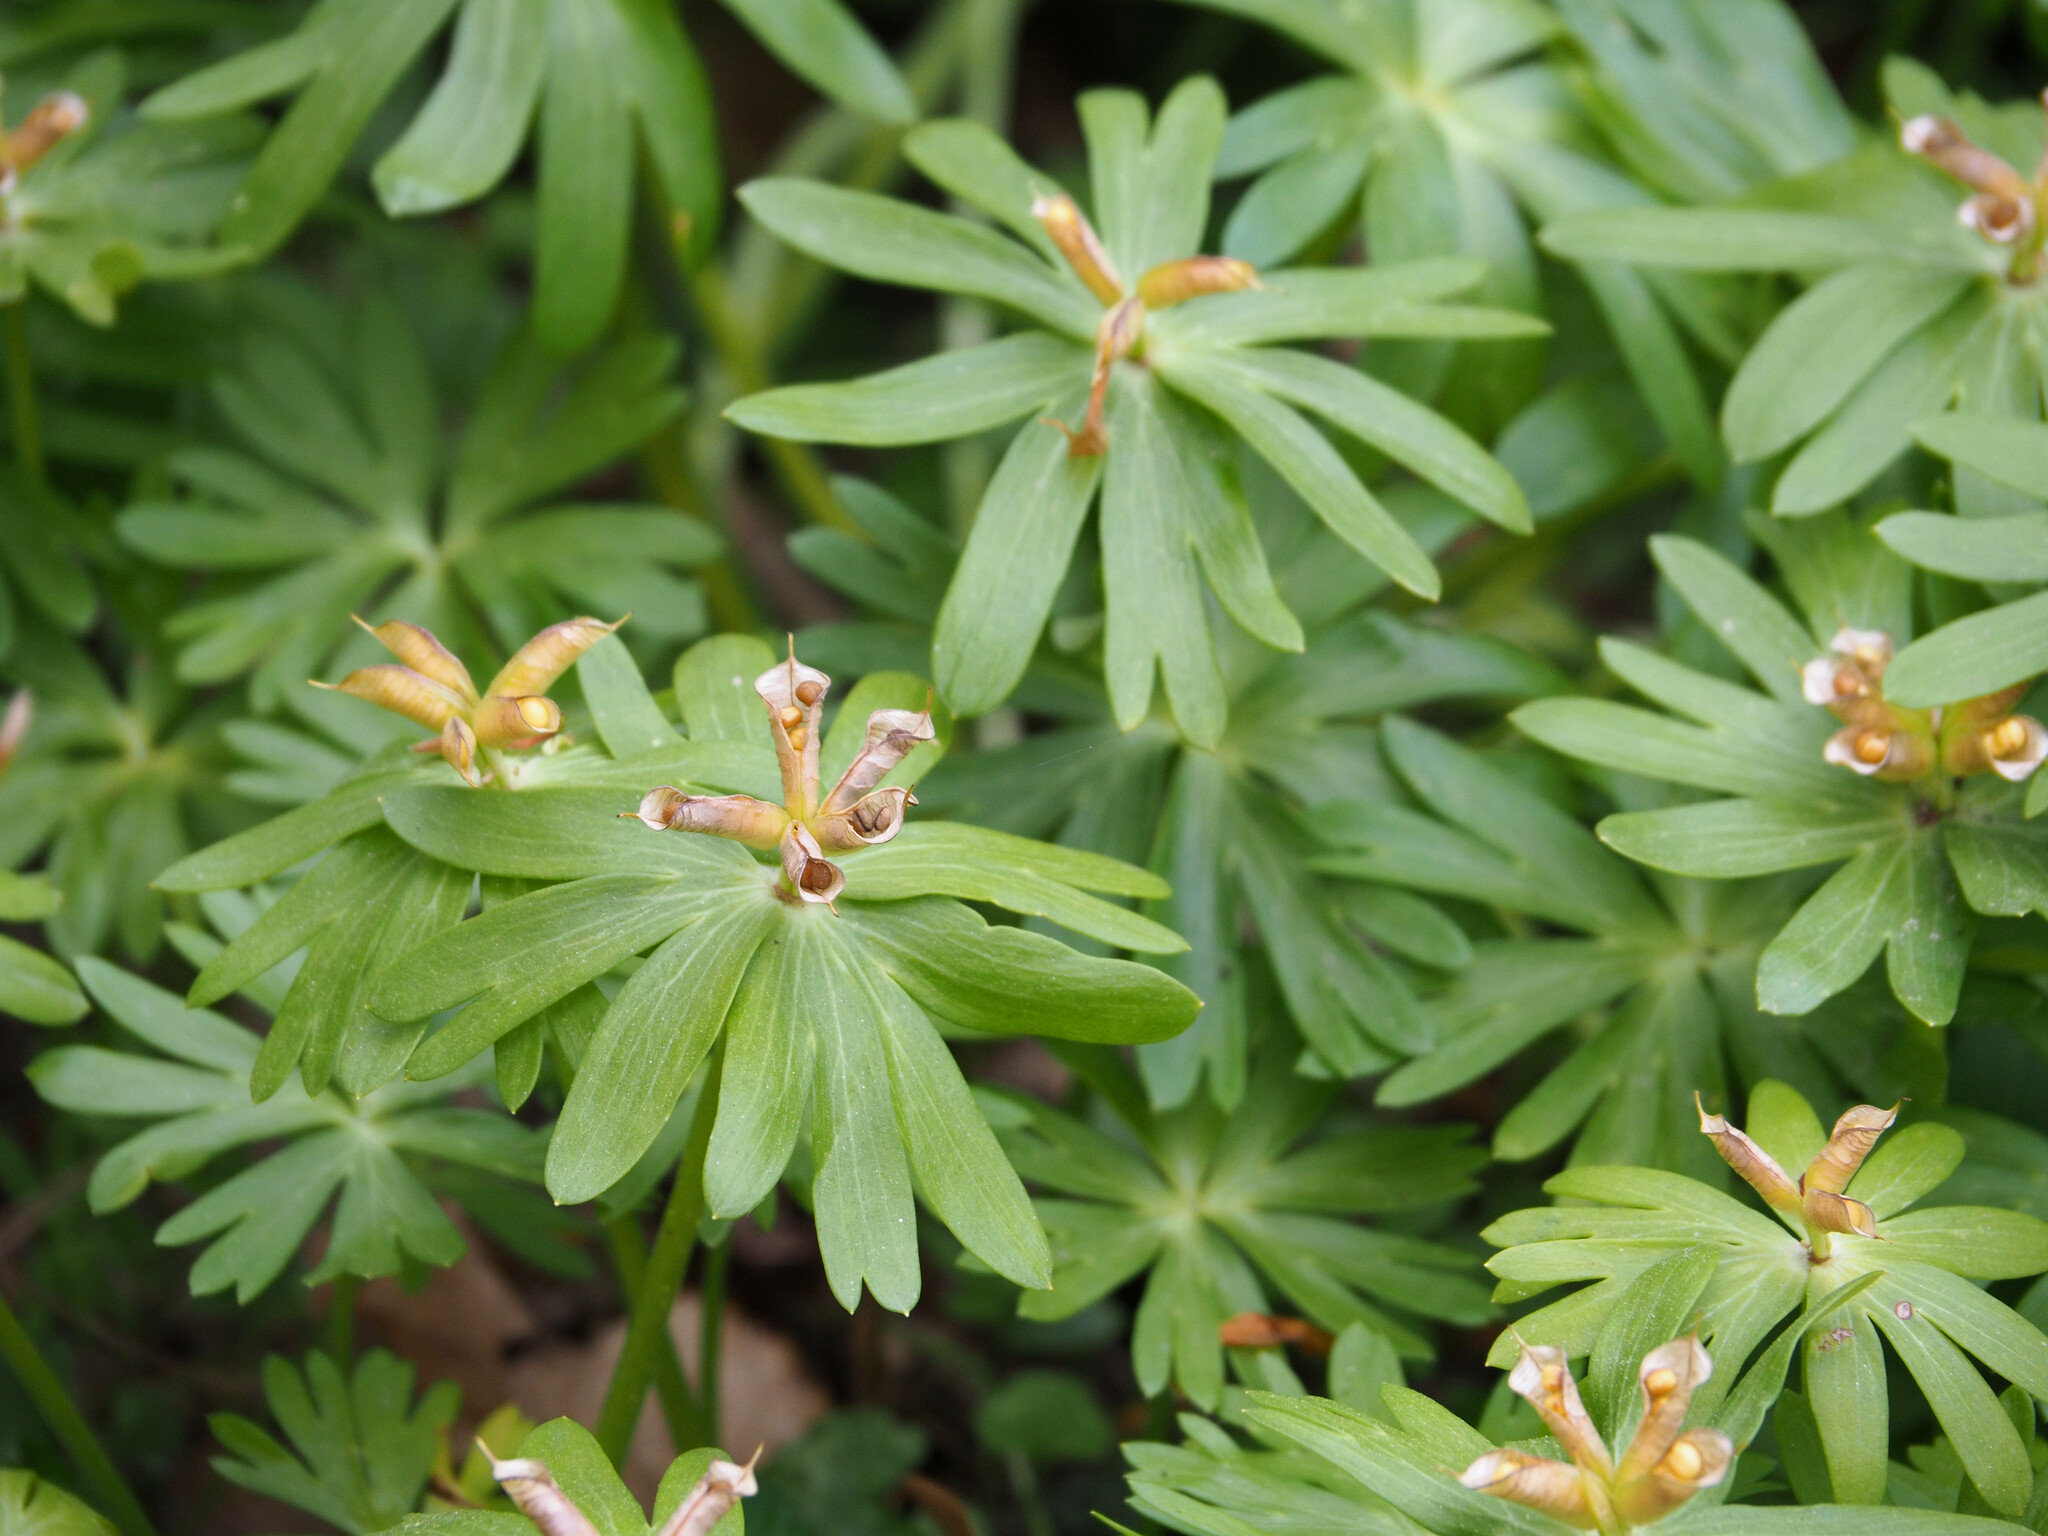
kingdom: Plantae
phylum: Tracheophyta
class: Magnoliopsida
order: Ranunculales
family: Ranunculaceae
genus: Eranthis
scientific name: Eranthis hyemalis
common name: Winter aconite
